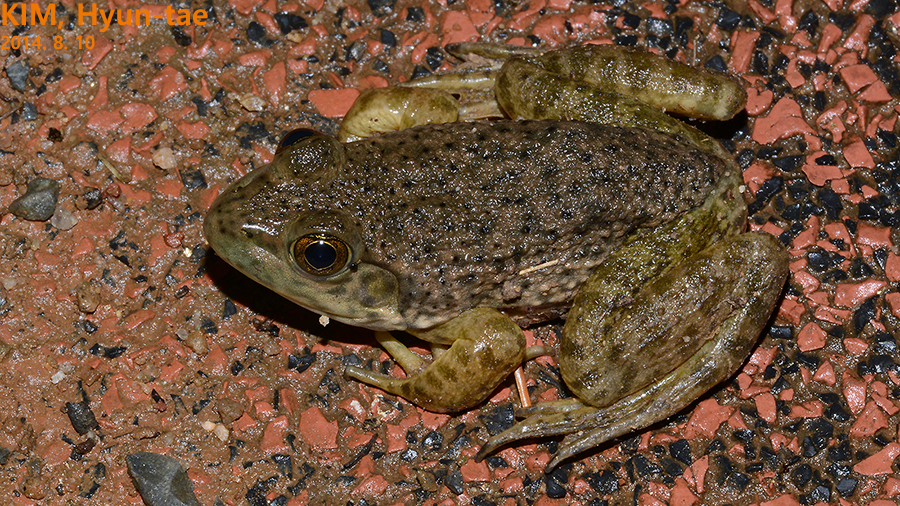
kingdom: Animalia
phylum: Chordata
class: Amphibia
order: Anura
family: Ranidae
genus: Lithobates
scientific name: Lithobates catesbeianus
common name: American bullfrog
